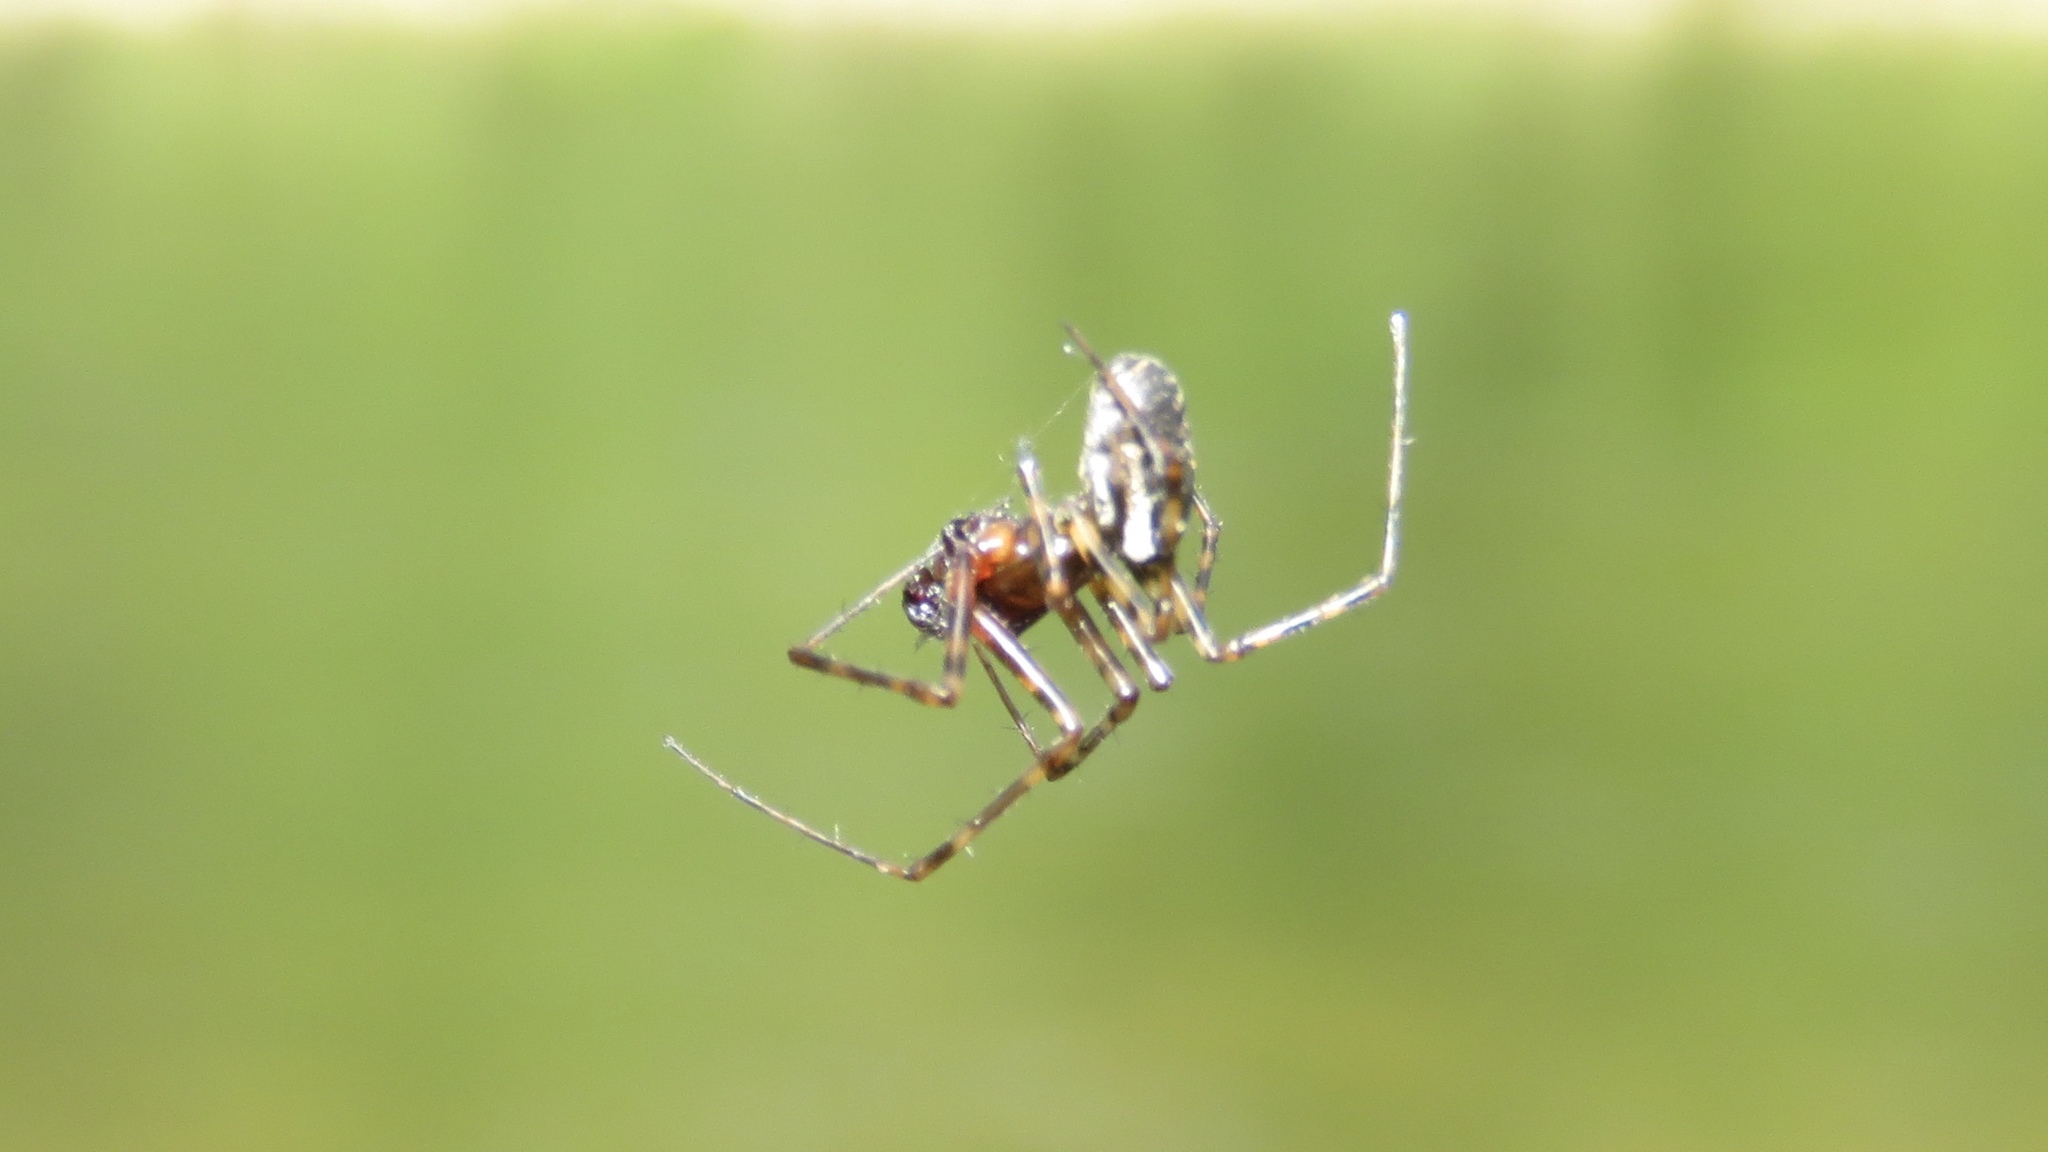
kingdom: Animalia
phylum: Arthropoda
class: Arachnida
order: Araneae
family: Linyphiidae
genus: Neriene
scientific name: Neriene montana
